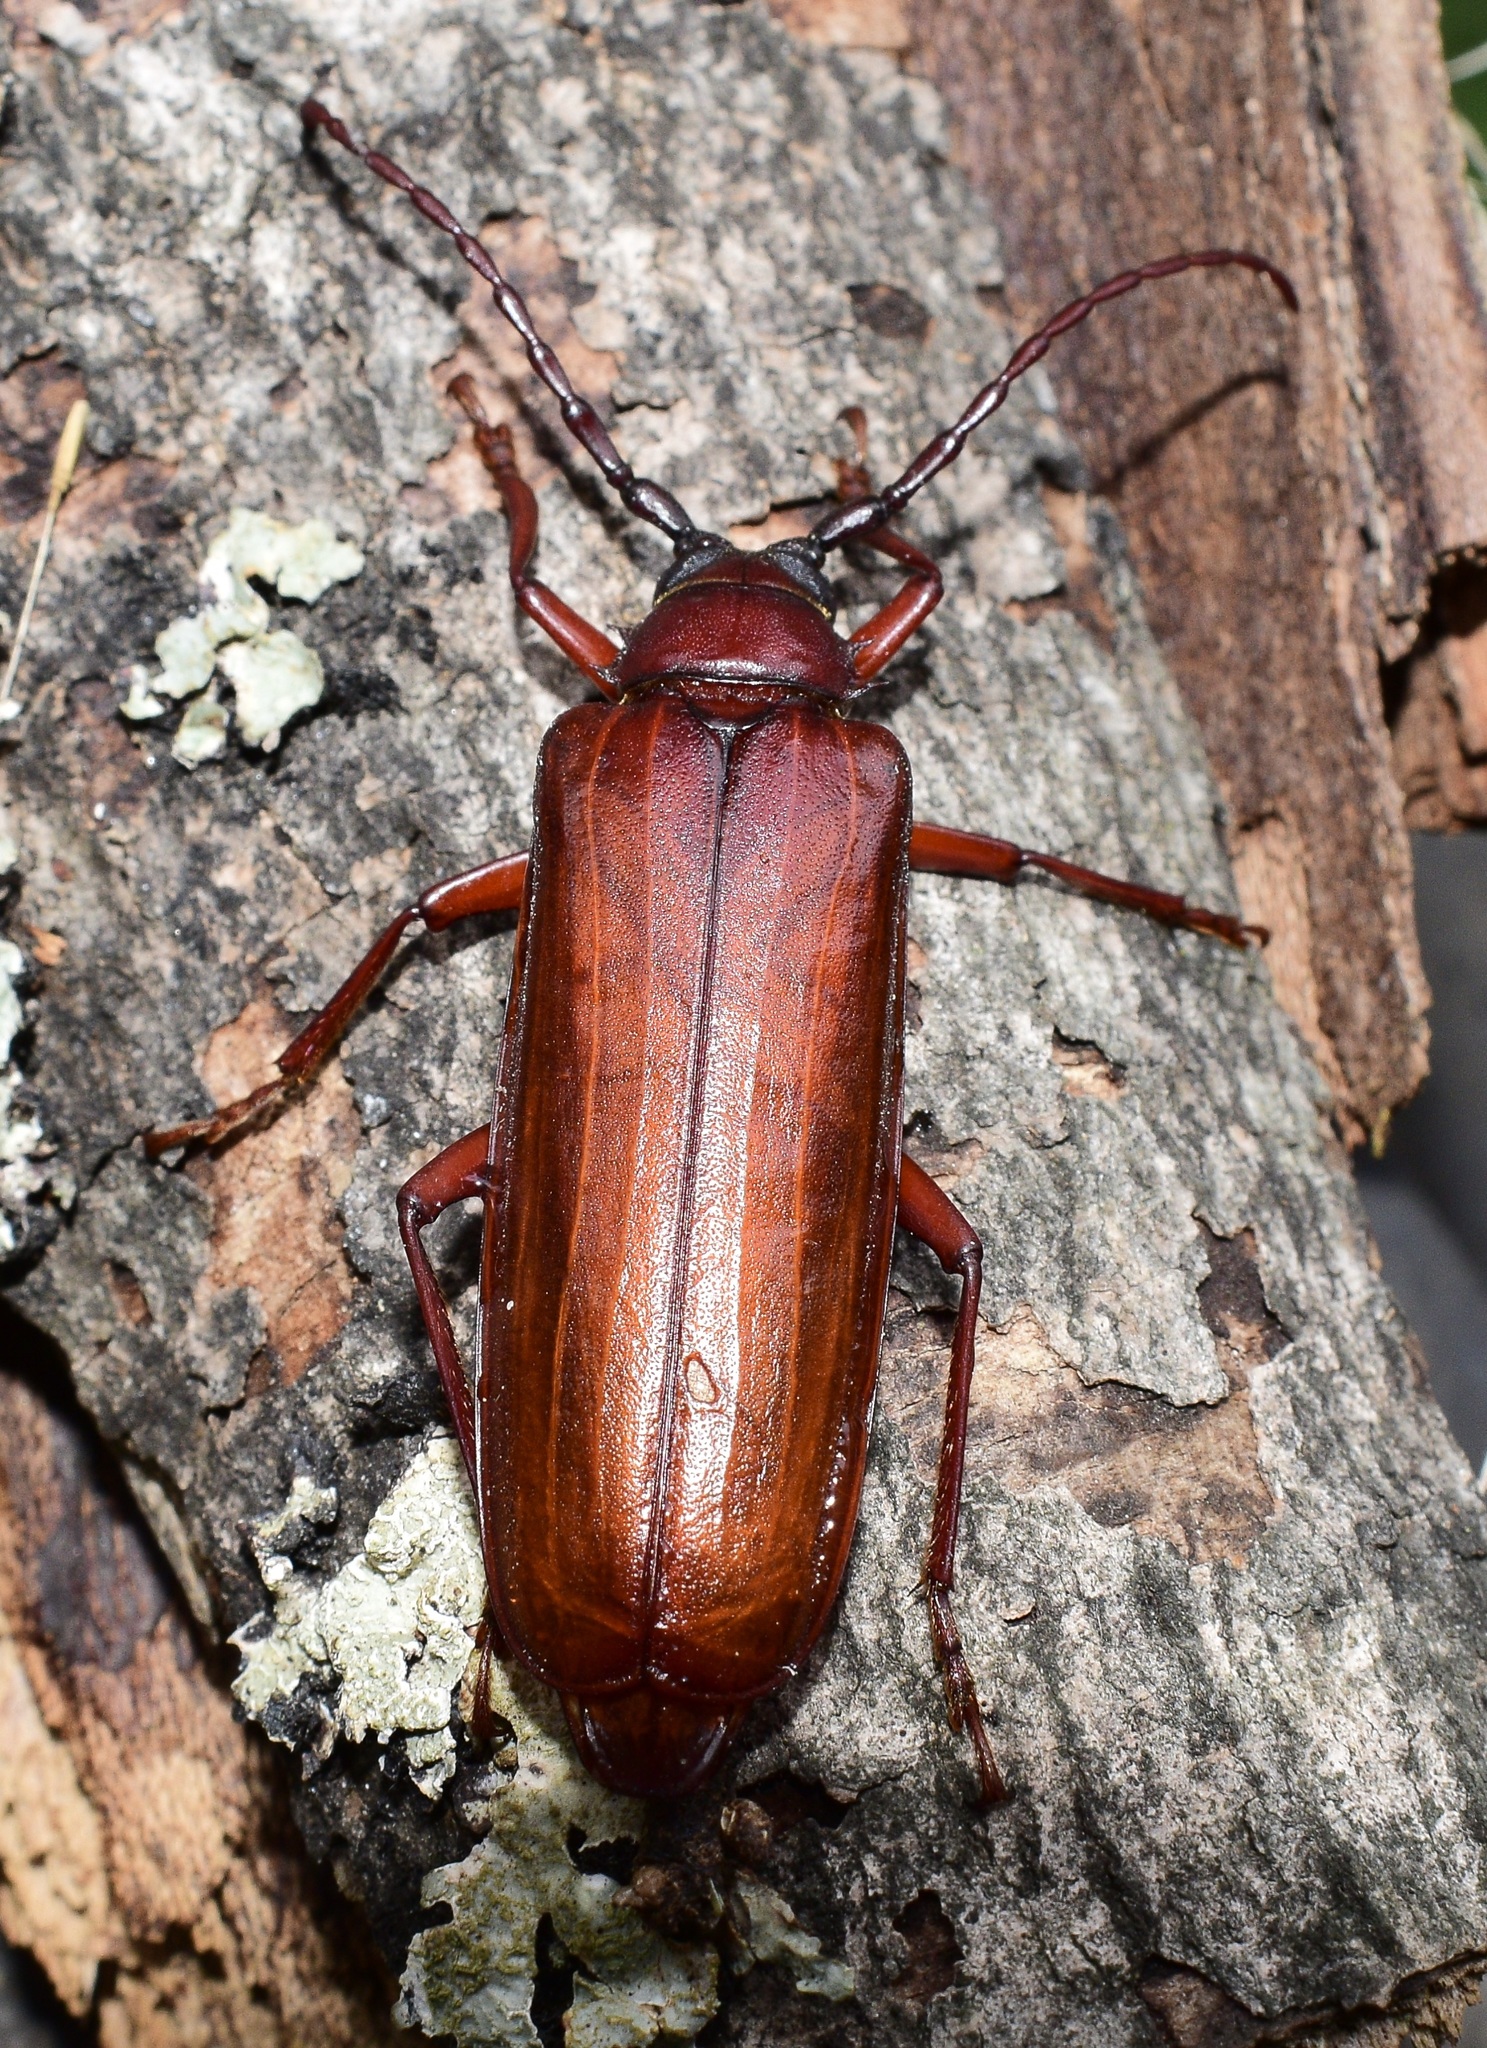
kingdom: Animalia
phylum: Arthropoda
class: Insecta
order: Coleoptera
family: Cerambycidae
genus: Orthosoma
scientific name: Orthosoma brunneum
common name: Brown prionid beetle
